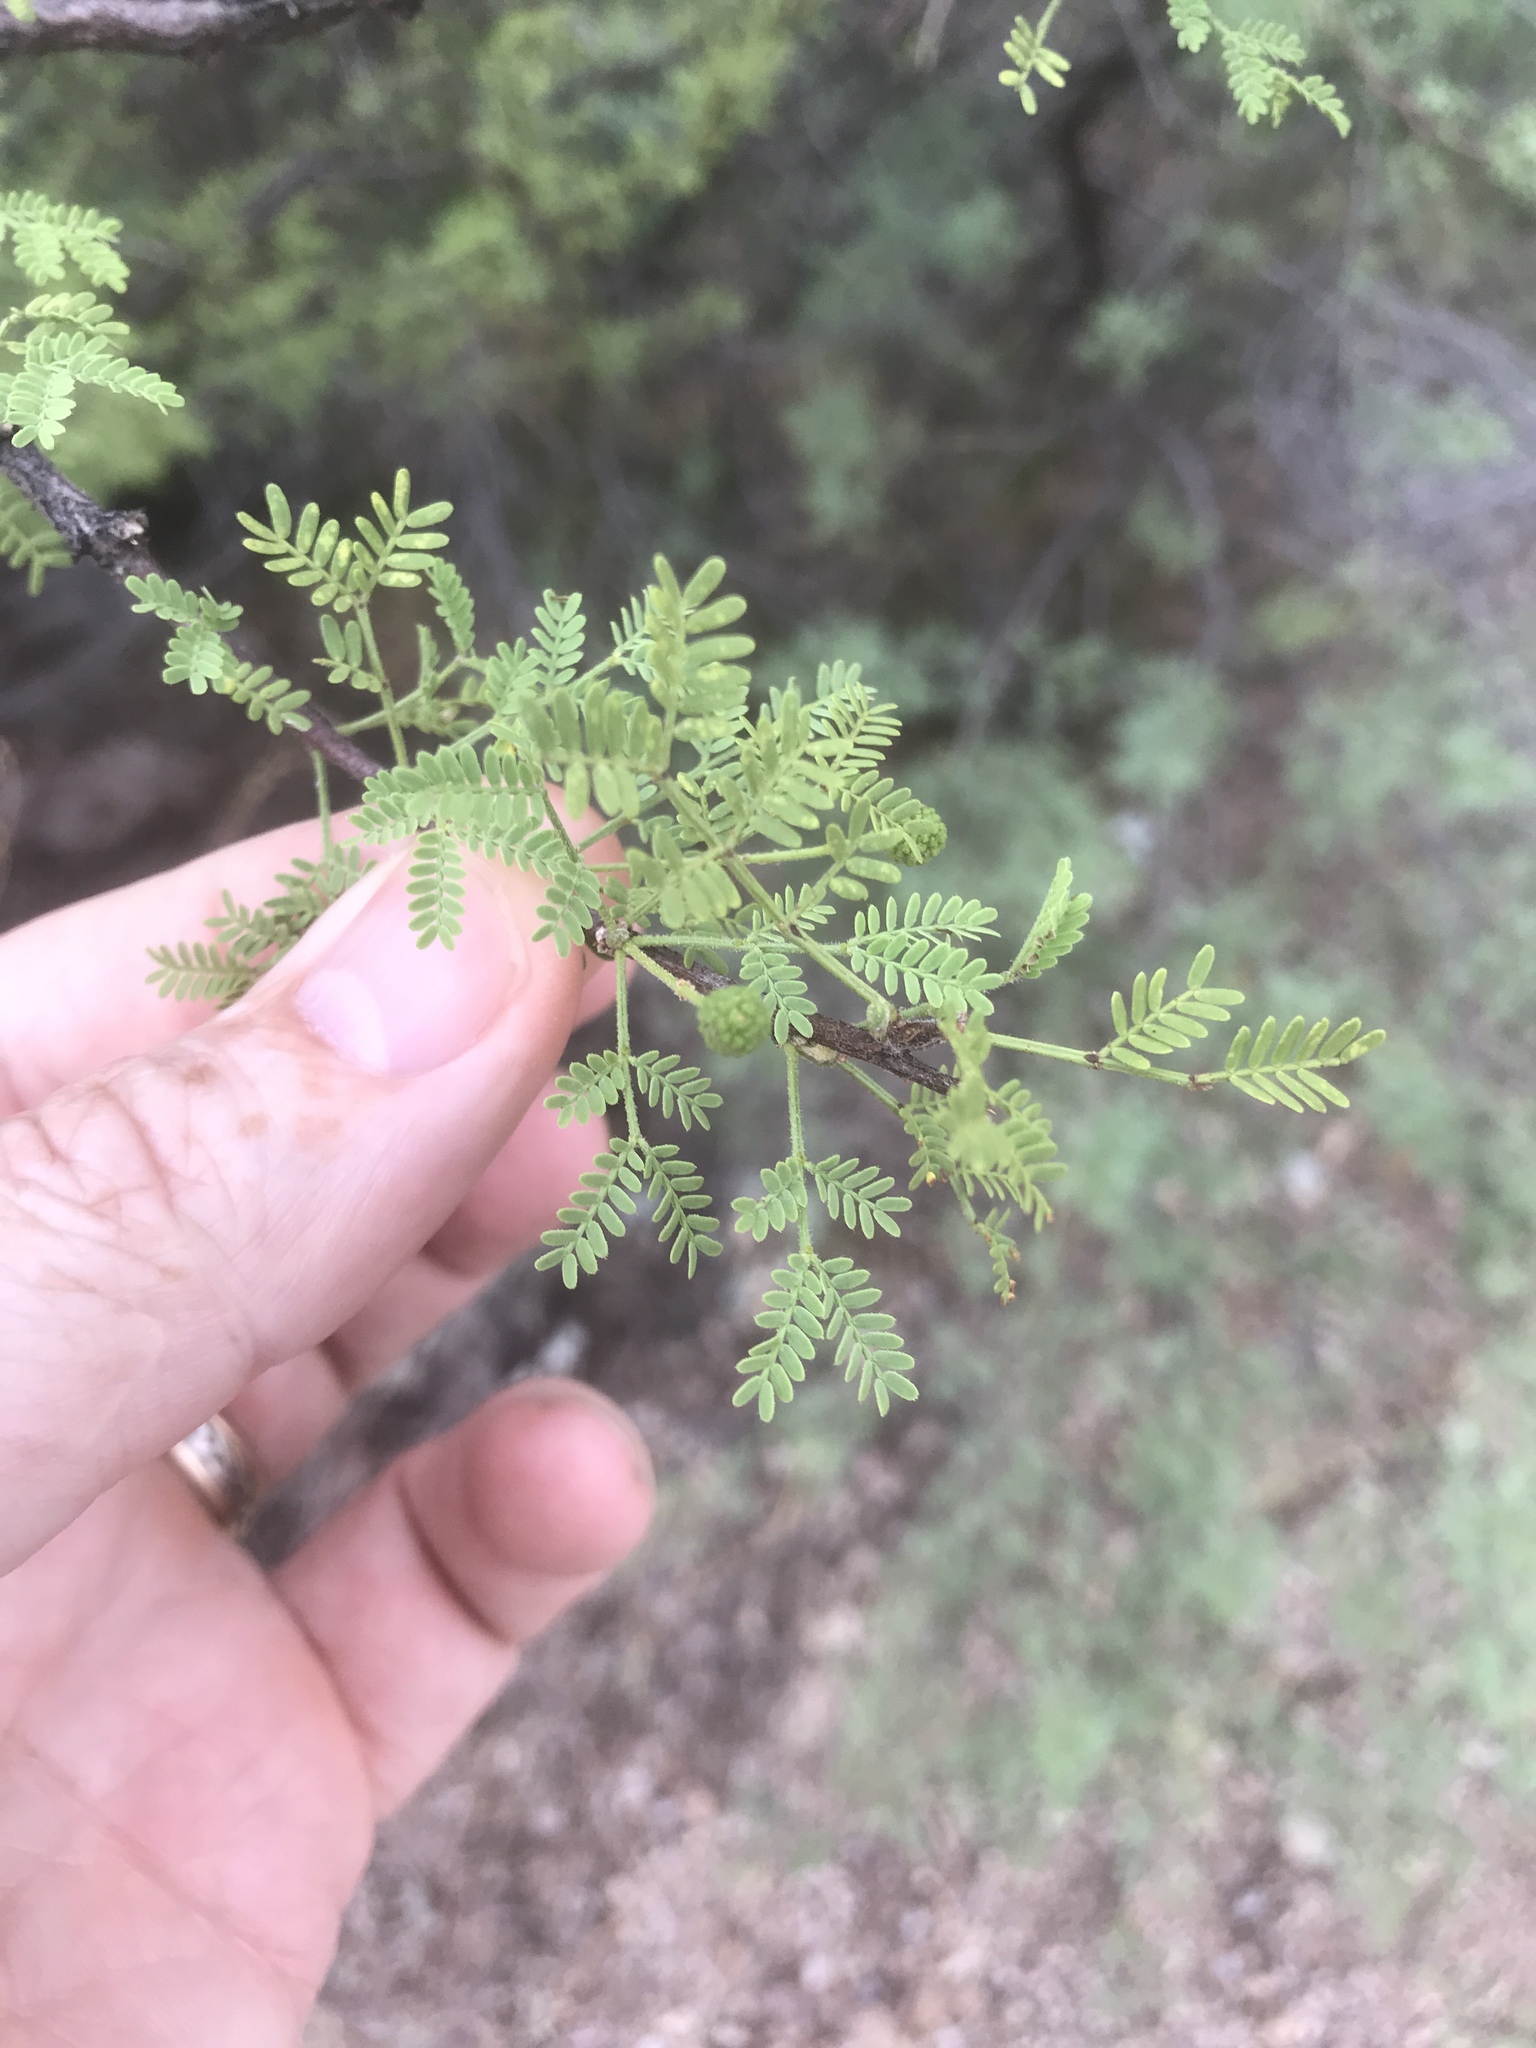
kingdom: Plantae
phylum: Tracheophyta
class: Magnoliopsida
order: Fabales
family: Fabaceae
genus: Vachellia
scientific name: Vachellia constricta
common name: Mescat acacia
